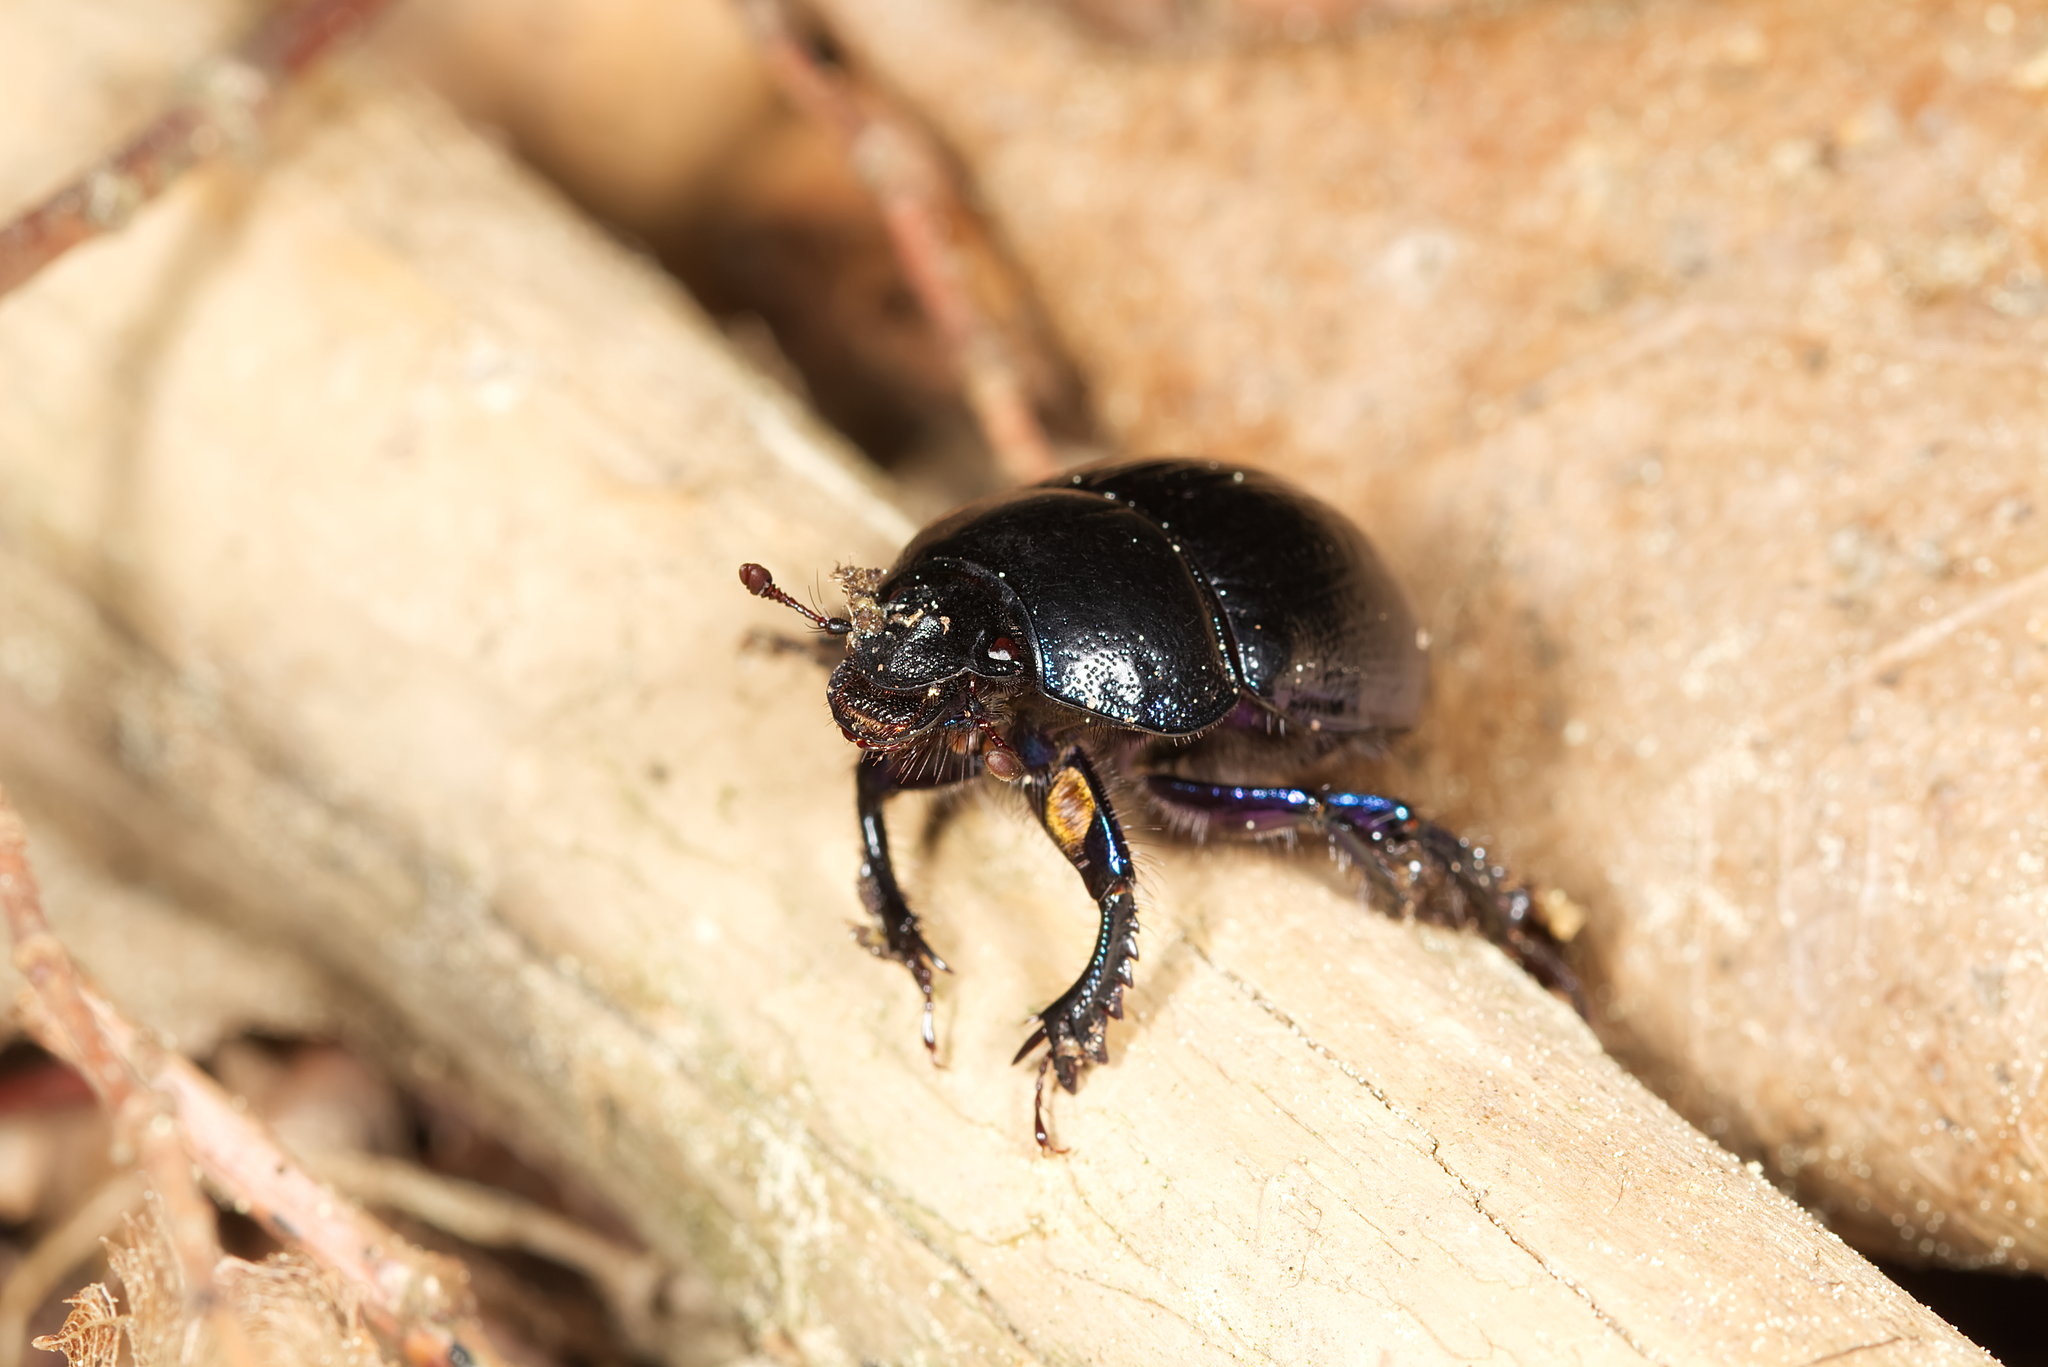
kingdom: Animalia
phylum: Arthropoda
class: Insecta
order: Coleoptera
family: Geotrupidae
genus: Anoplotrupes
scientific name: Anoplotrupes stercorosus
